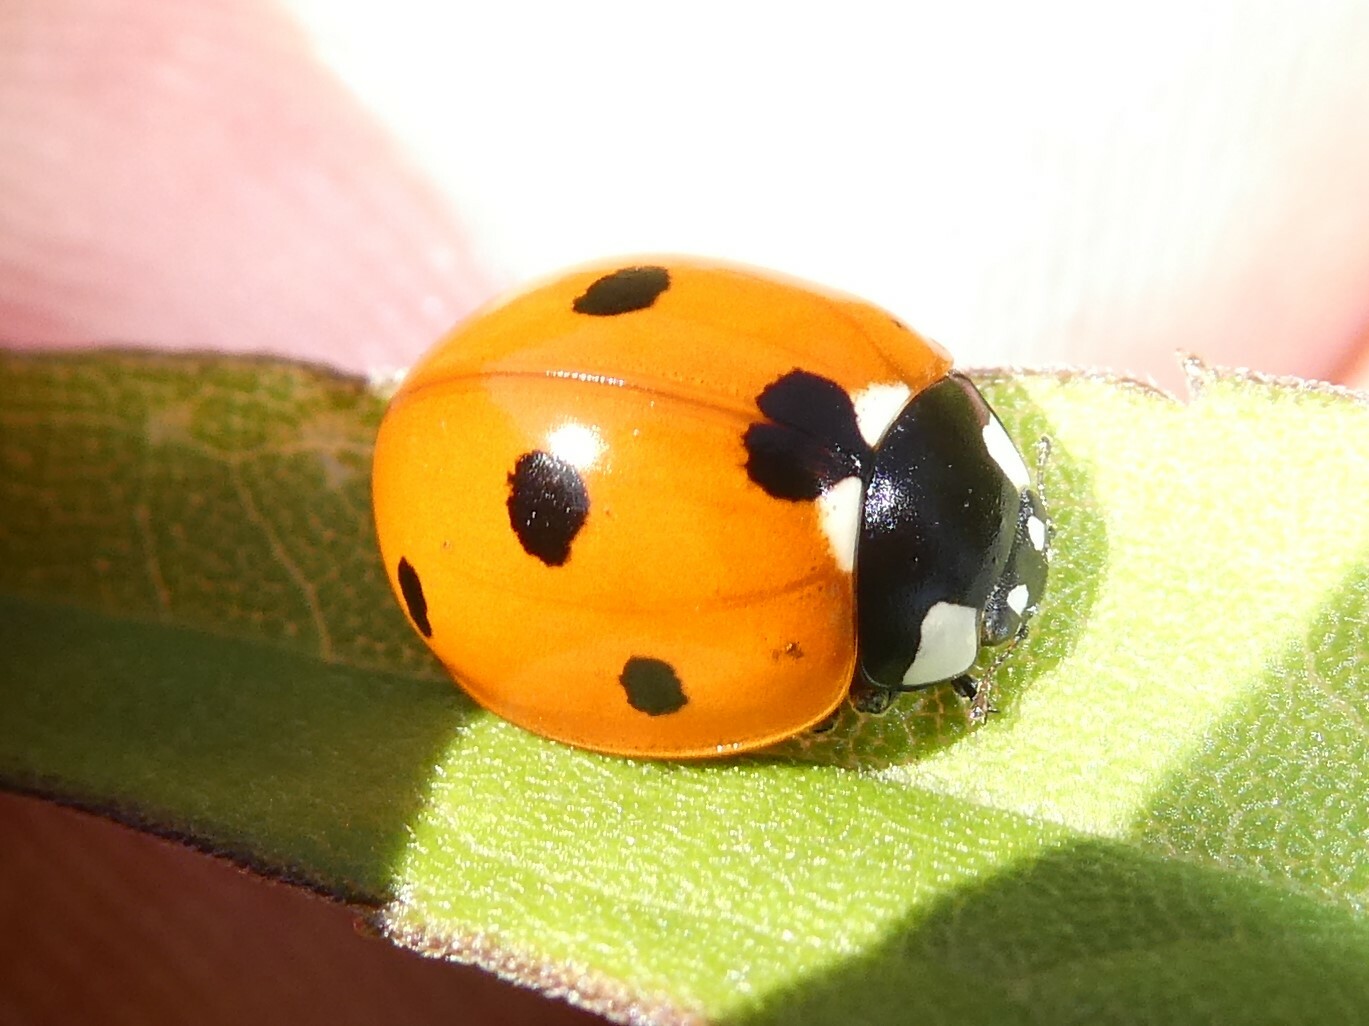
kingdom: Animalia
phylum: Arthropoda
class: Insecta
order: Coleoptera
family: Coccinellidae
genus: Coccinella
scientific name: Coccinella septempunctata
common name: Sevenspotted lady beetle
